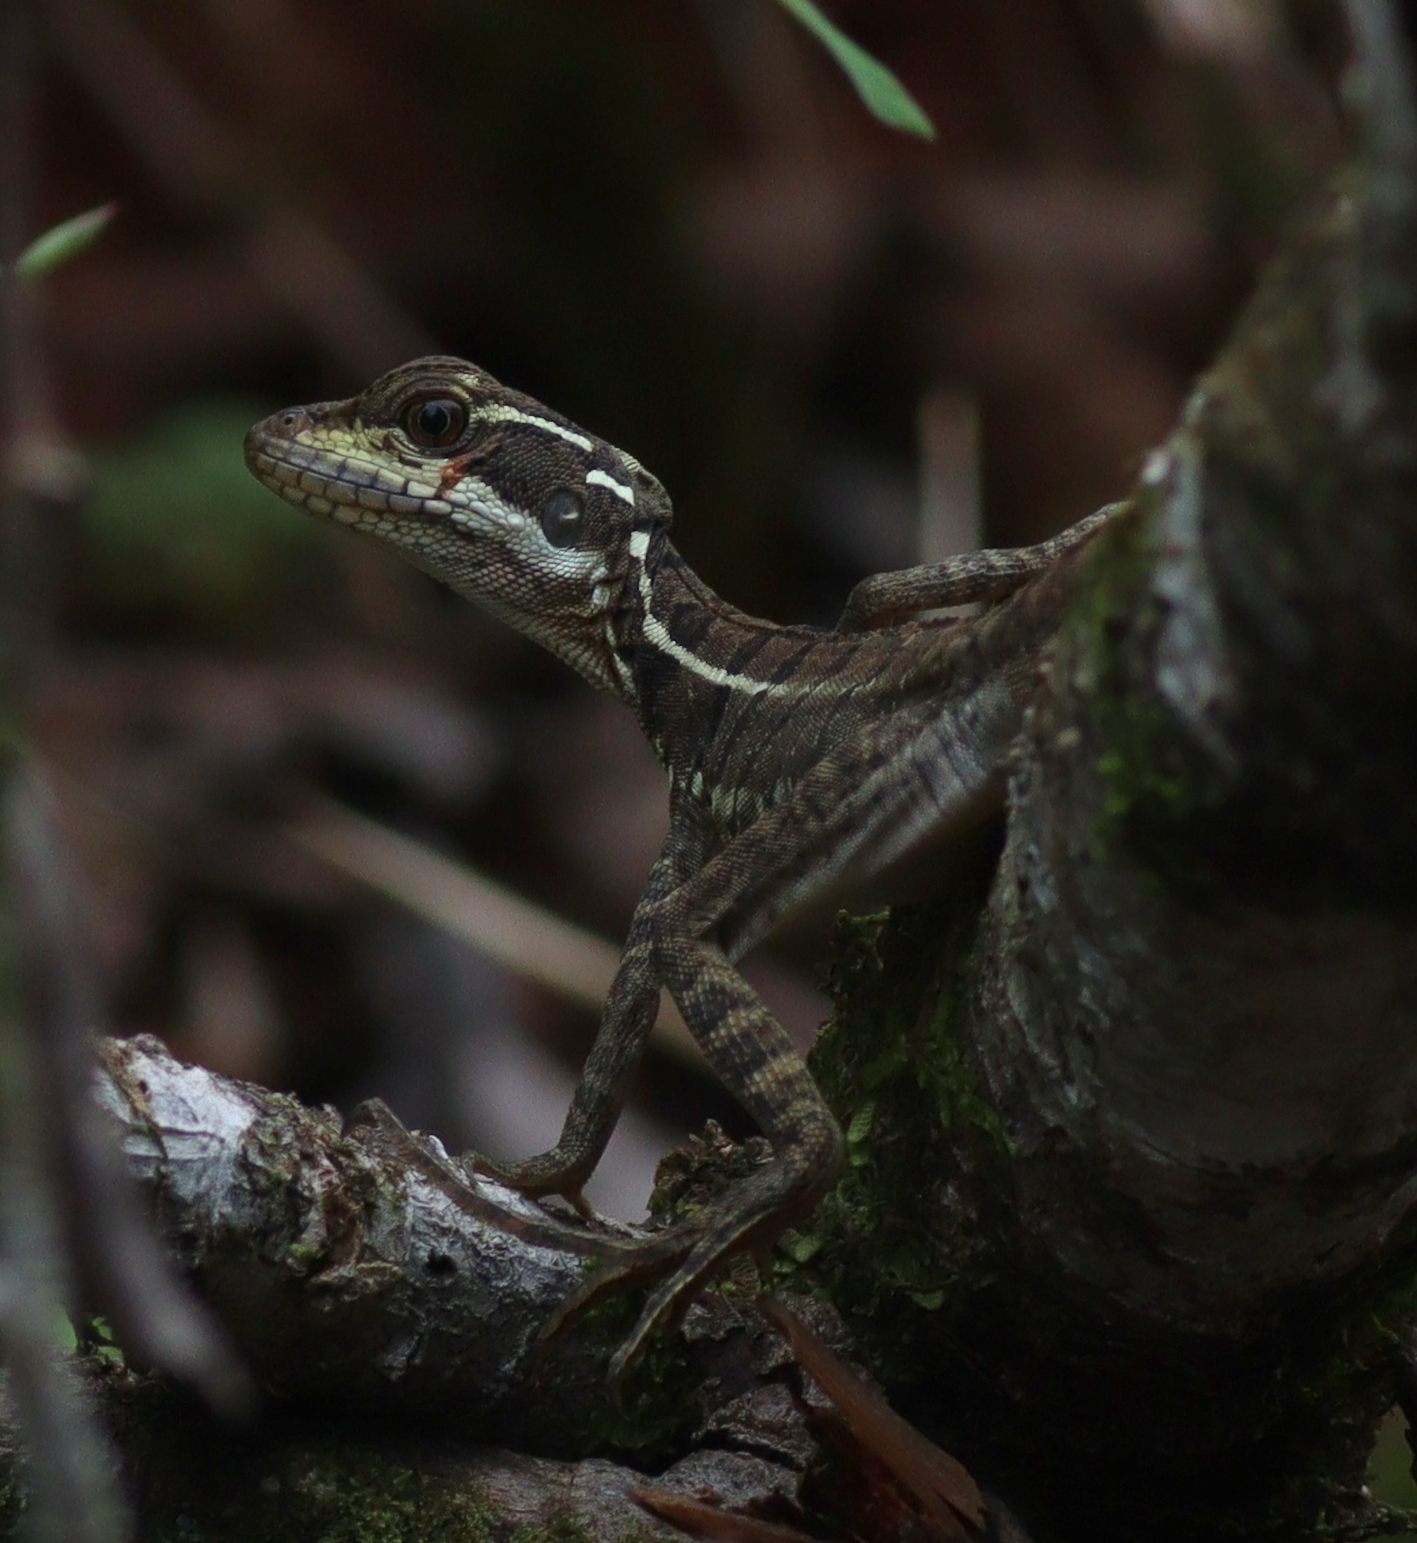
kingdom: Animalia
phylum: Chordata
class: Squamata
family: Corytophanidae
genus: Basiliscus
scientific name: Basiliscus basiliscus
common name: Common basilisk
